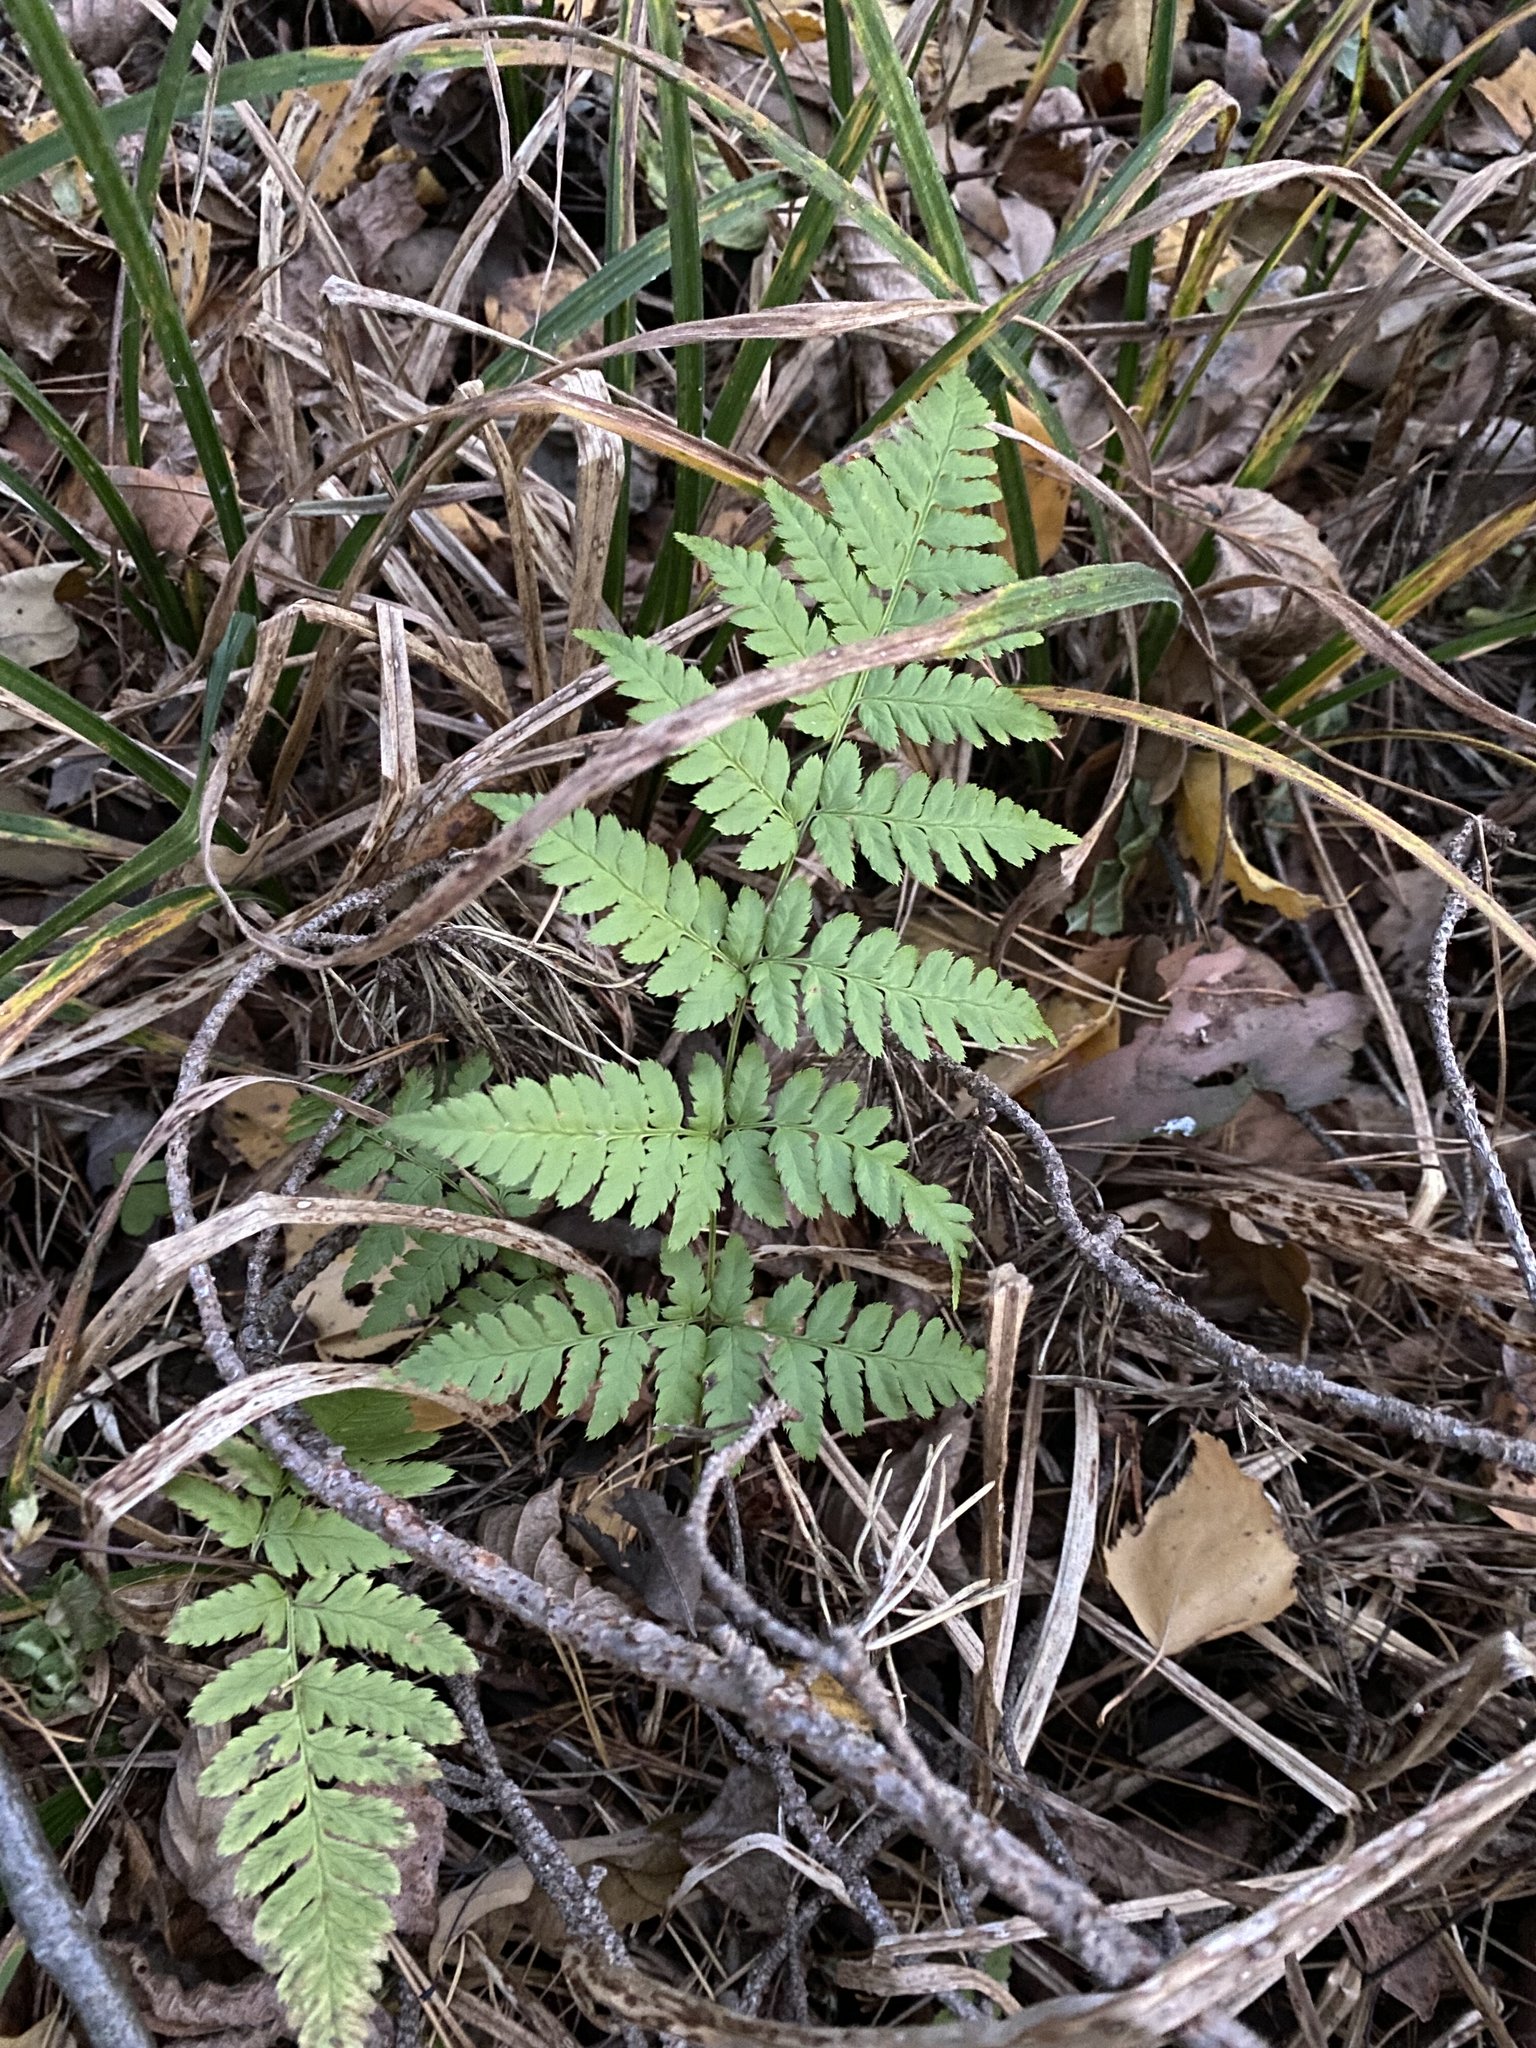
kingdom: Plantae
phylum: Tracheophyta
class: Polypodiopsida
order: Polypodiales
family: Dryopteridaceae
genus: Dryopteris
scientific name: Dryopteris carthusiana
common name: Narrow buckler-fern
